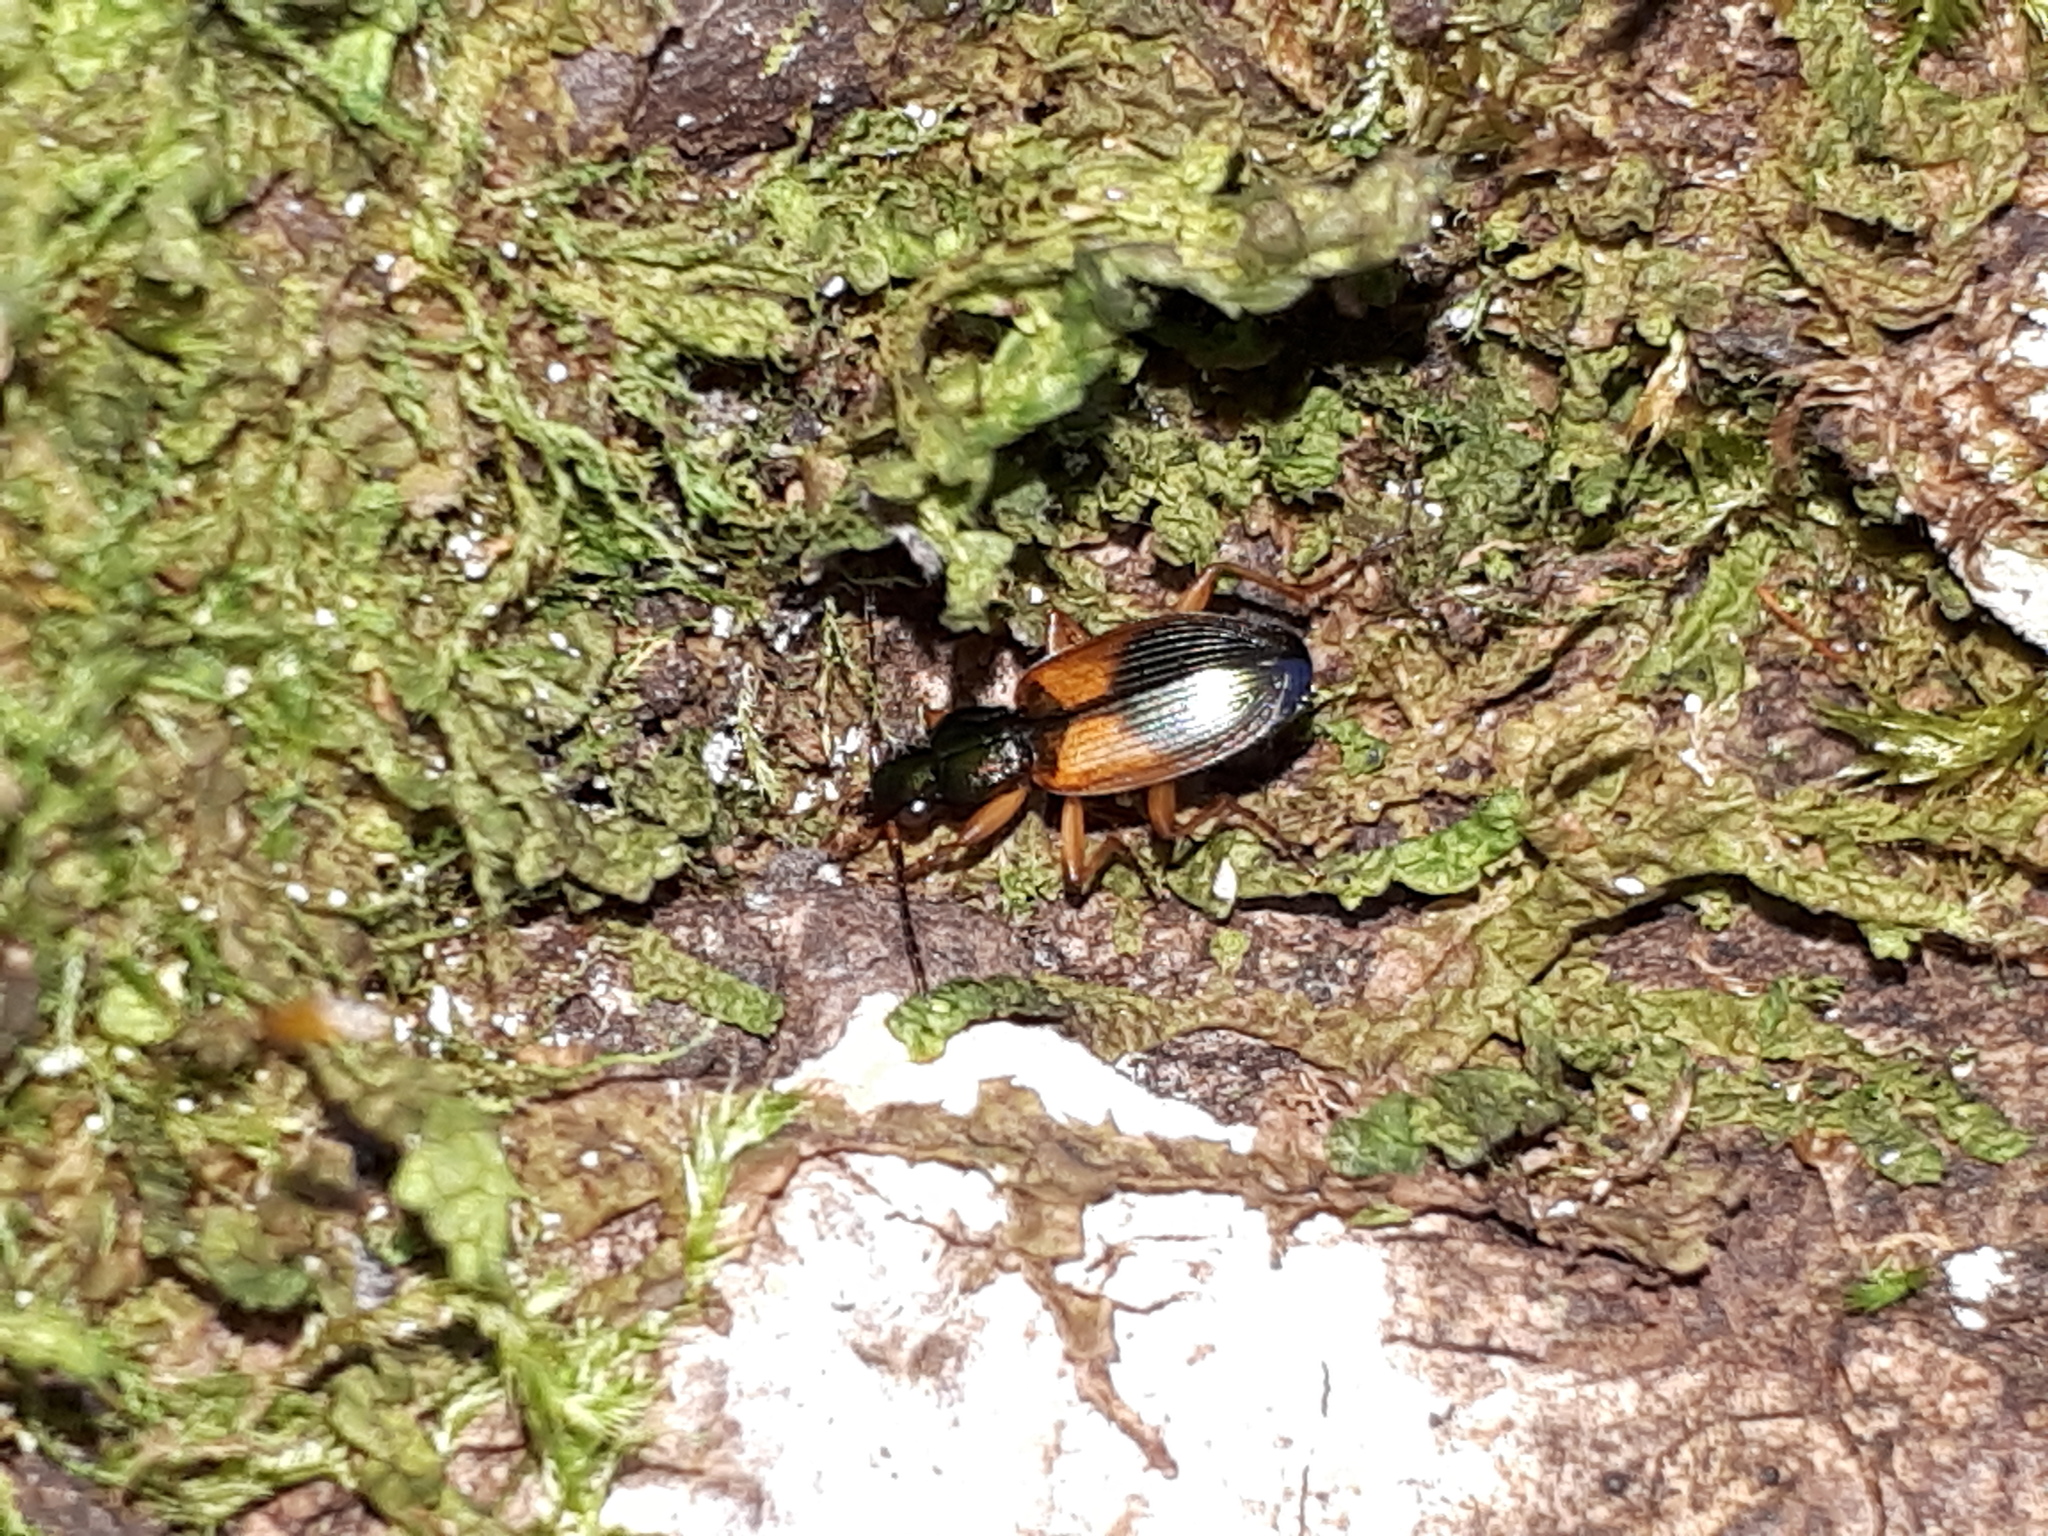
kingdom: Animalia
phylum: Arthropoda
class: Insecta
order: Coleoptera
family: Carabidae
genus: Anchomenus
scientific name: Anchomenus dorsalis
